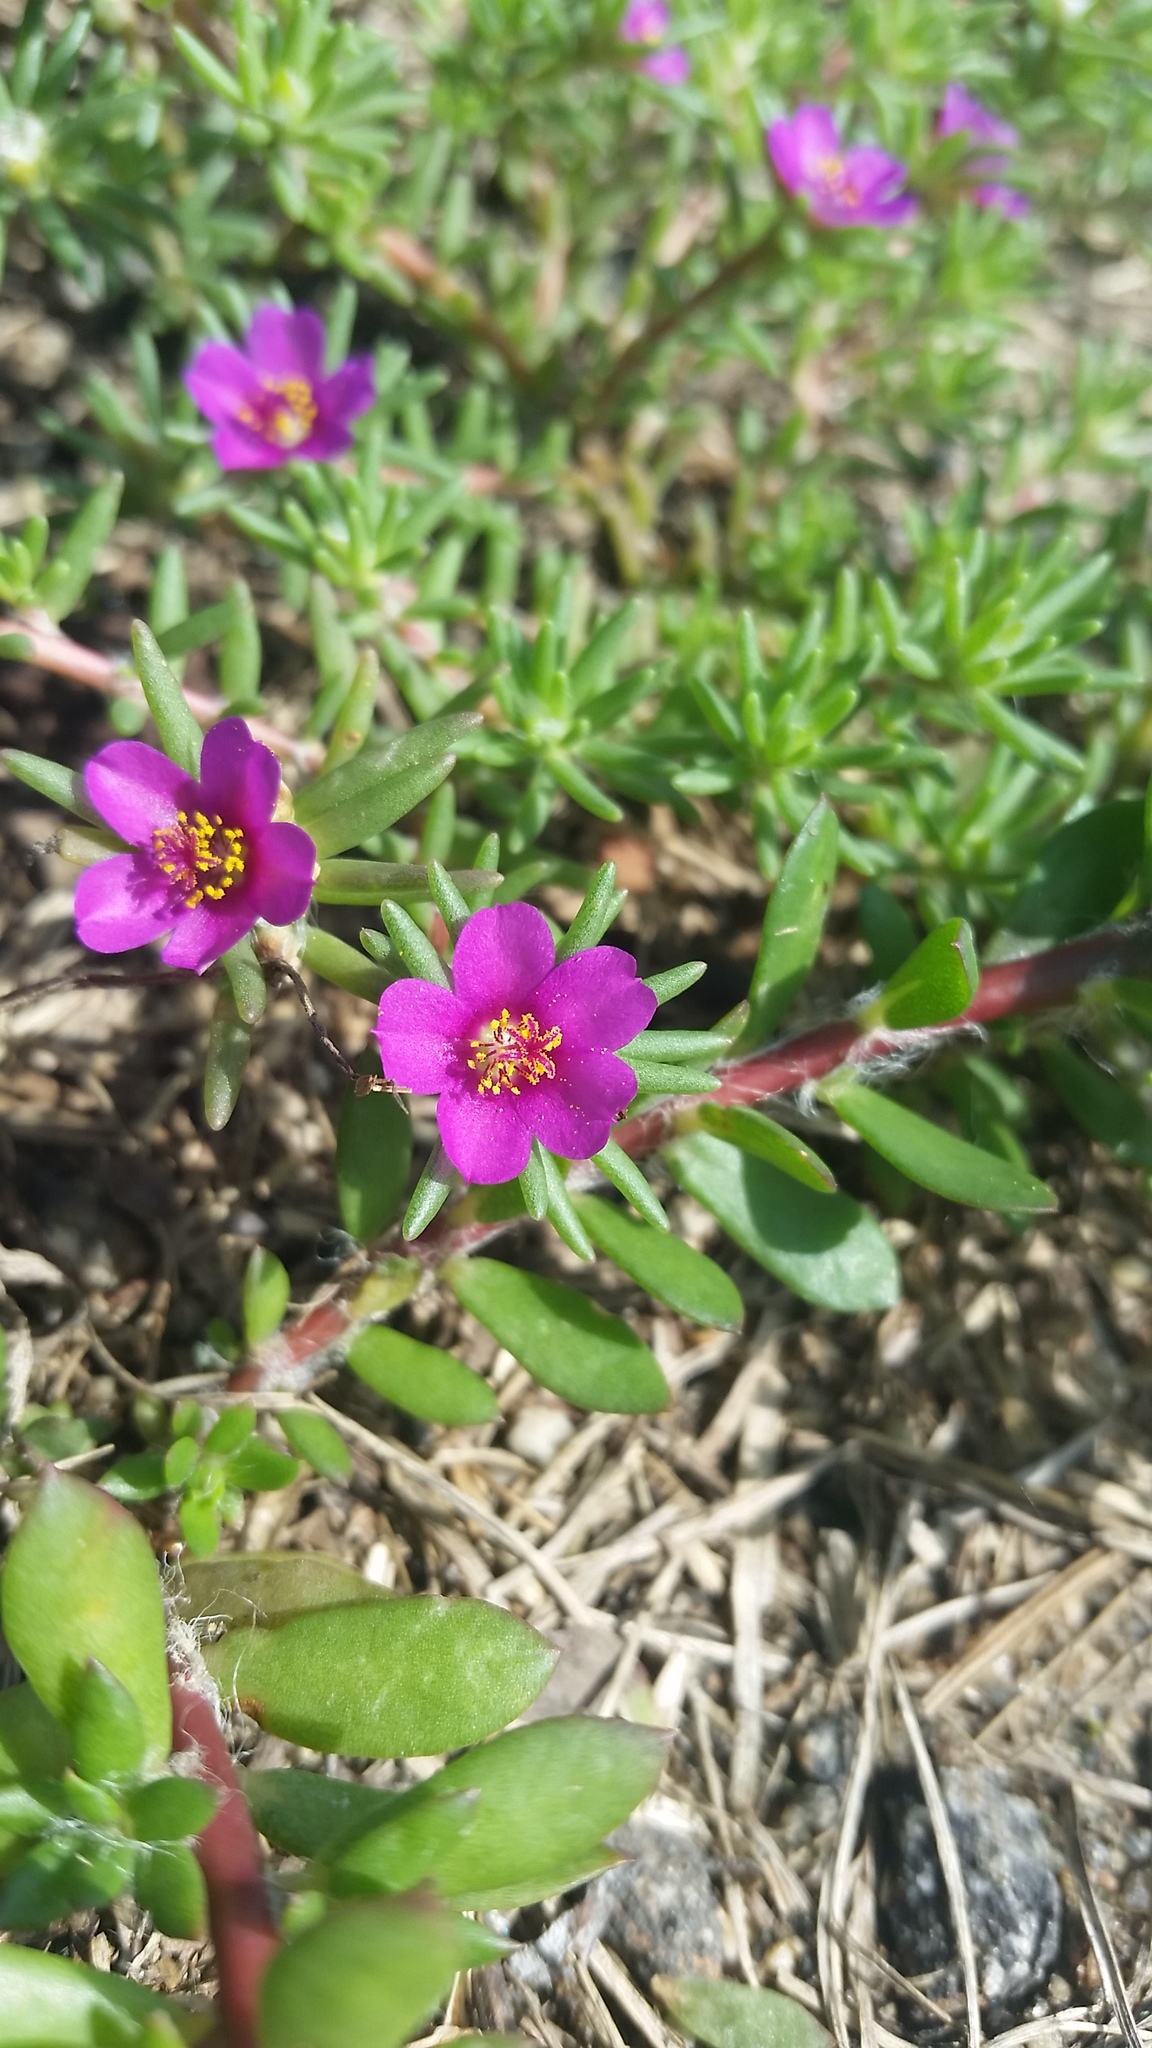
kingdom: Plantae
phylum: Tracheophyta
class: Magnoliopsida
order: Caryophyllales
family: Portulacaceae
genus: Portulaca
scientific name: Portulaca pilosa
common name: Kiss me quick
